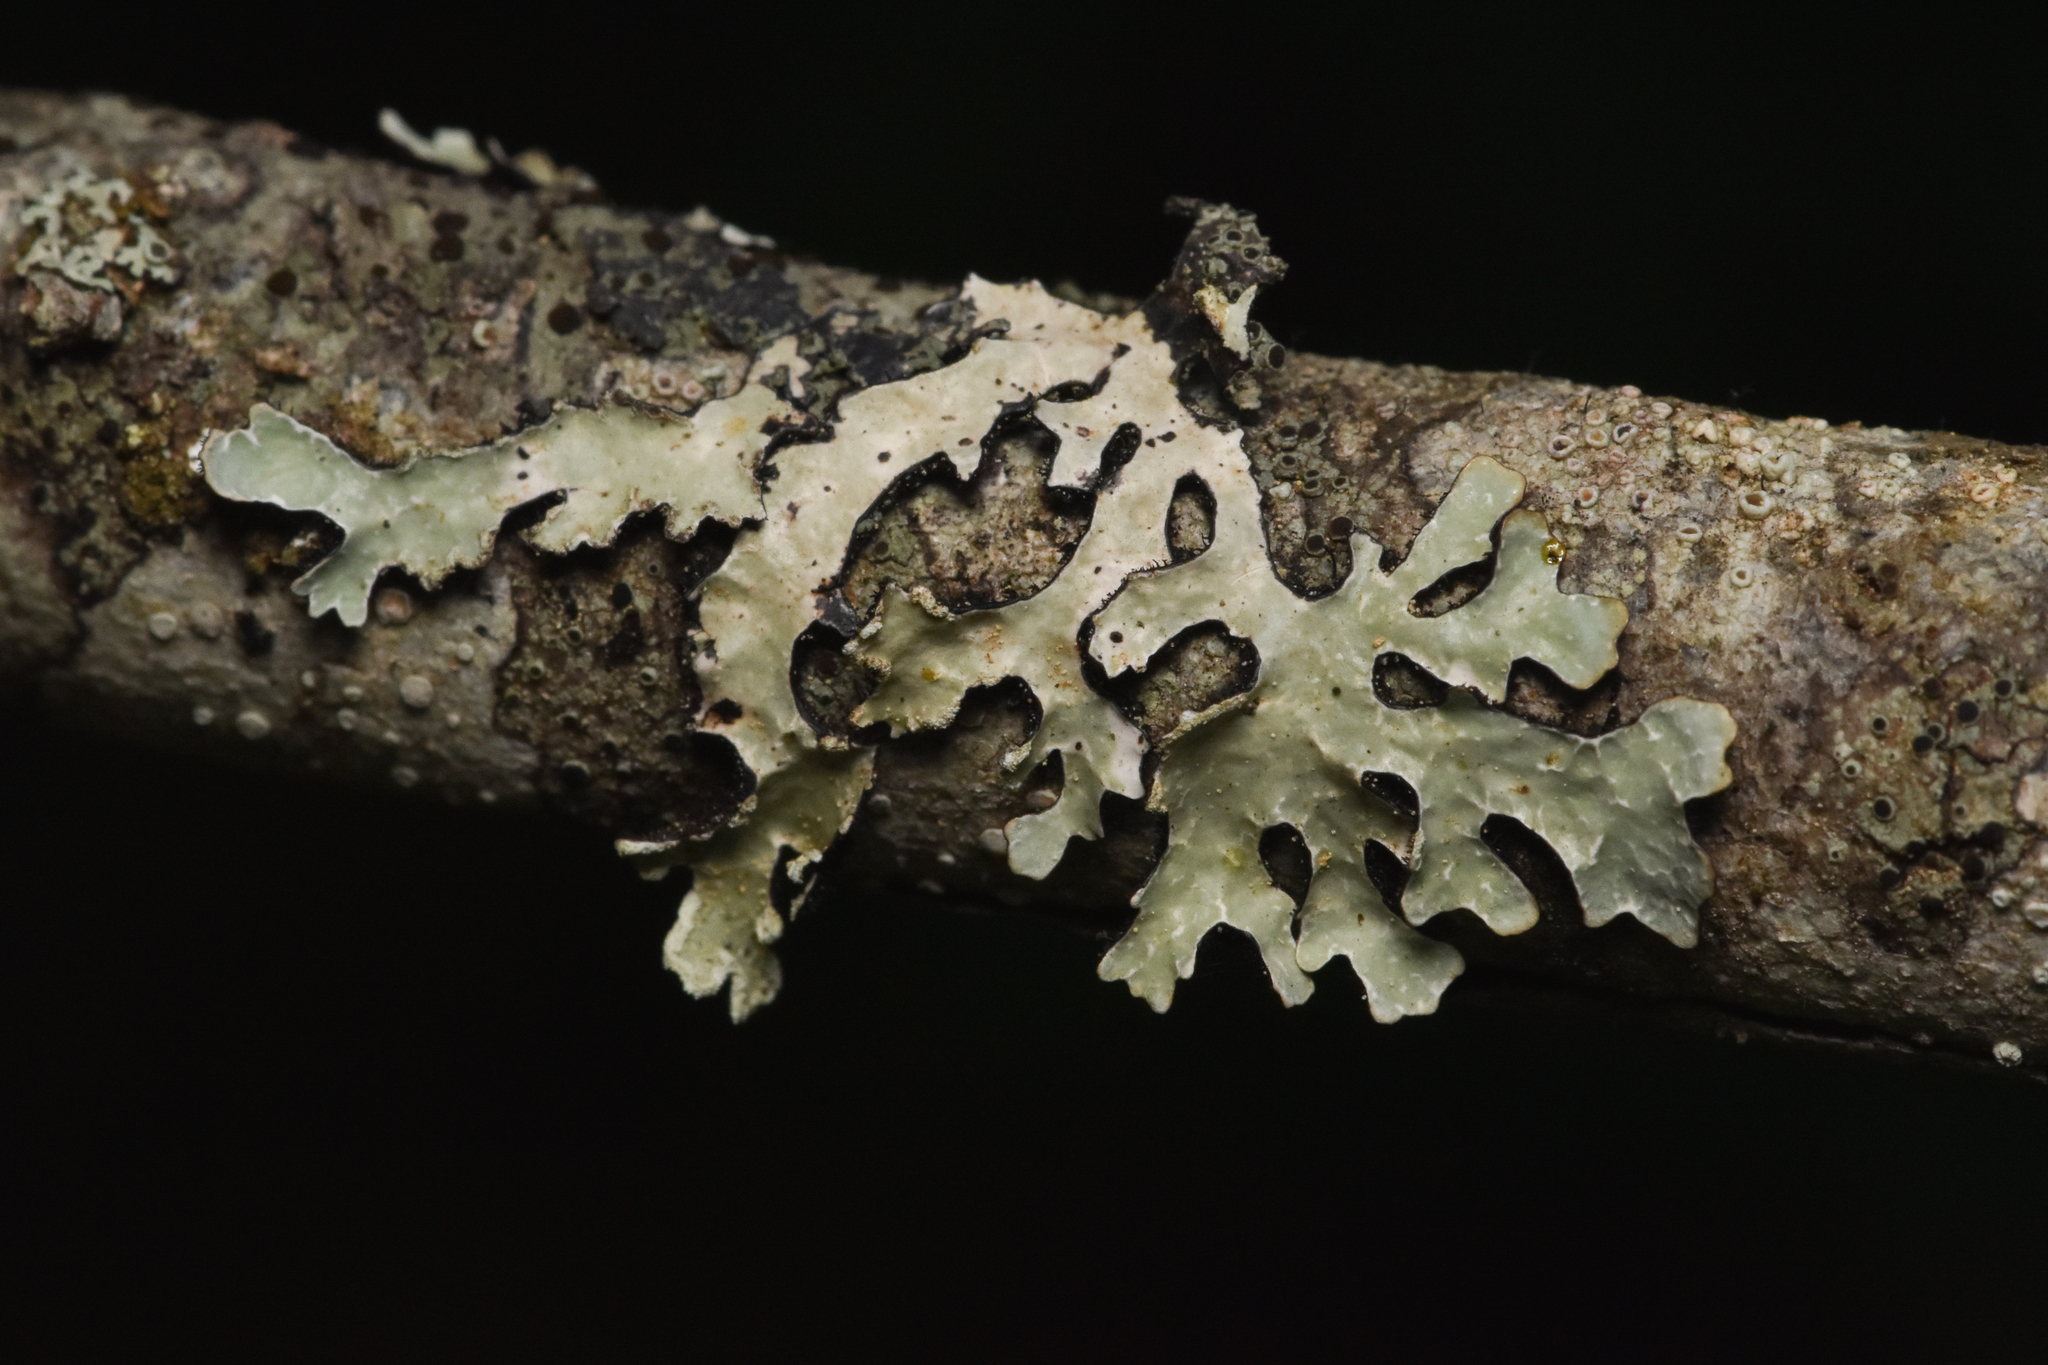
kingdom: Fungi
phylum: Ascomycota
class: Lecanoromycetes
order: Lecanorales
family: Parmeliaceae
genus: Parmelia
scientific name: Parmelia sulcata
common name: Netted shield lichen
